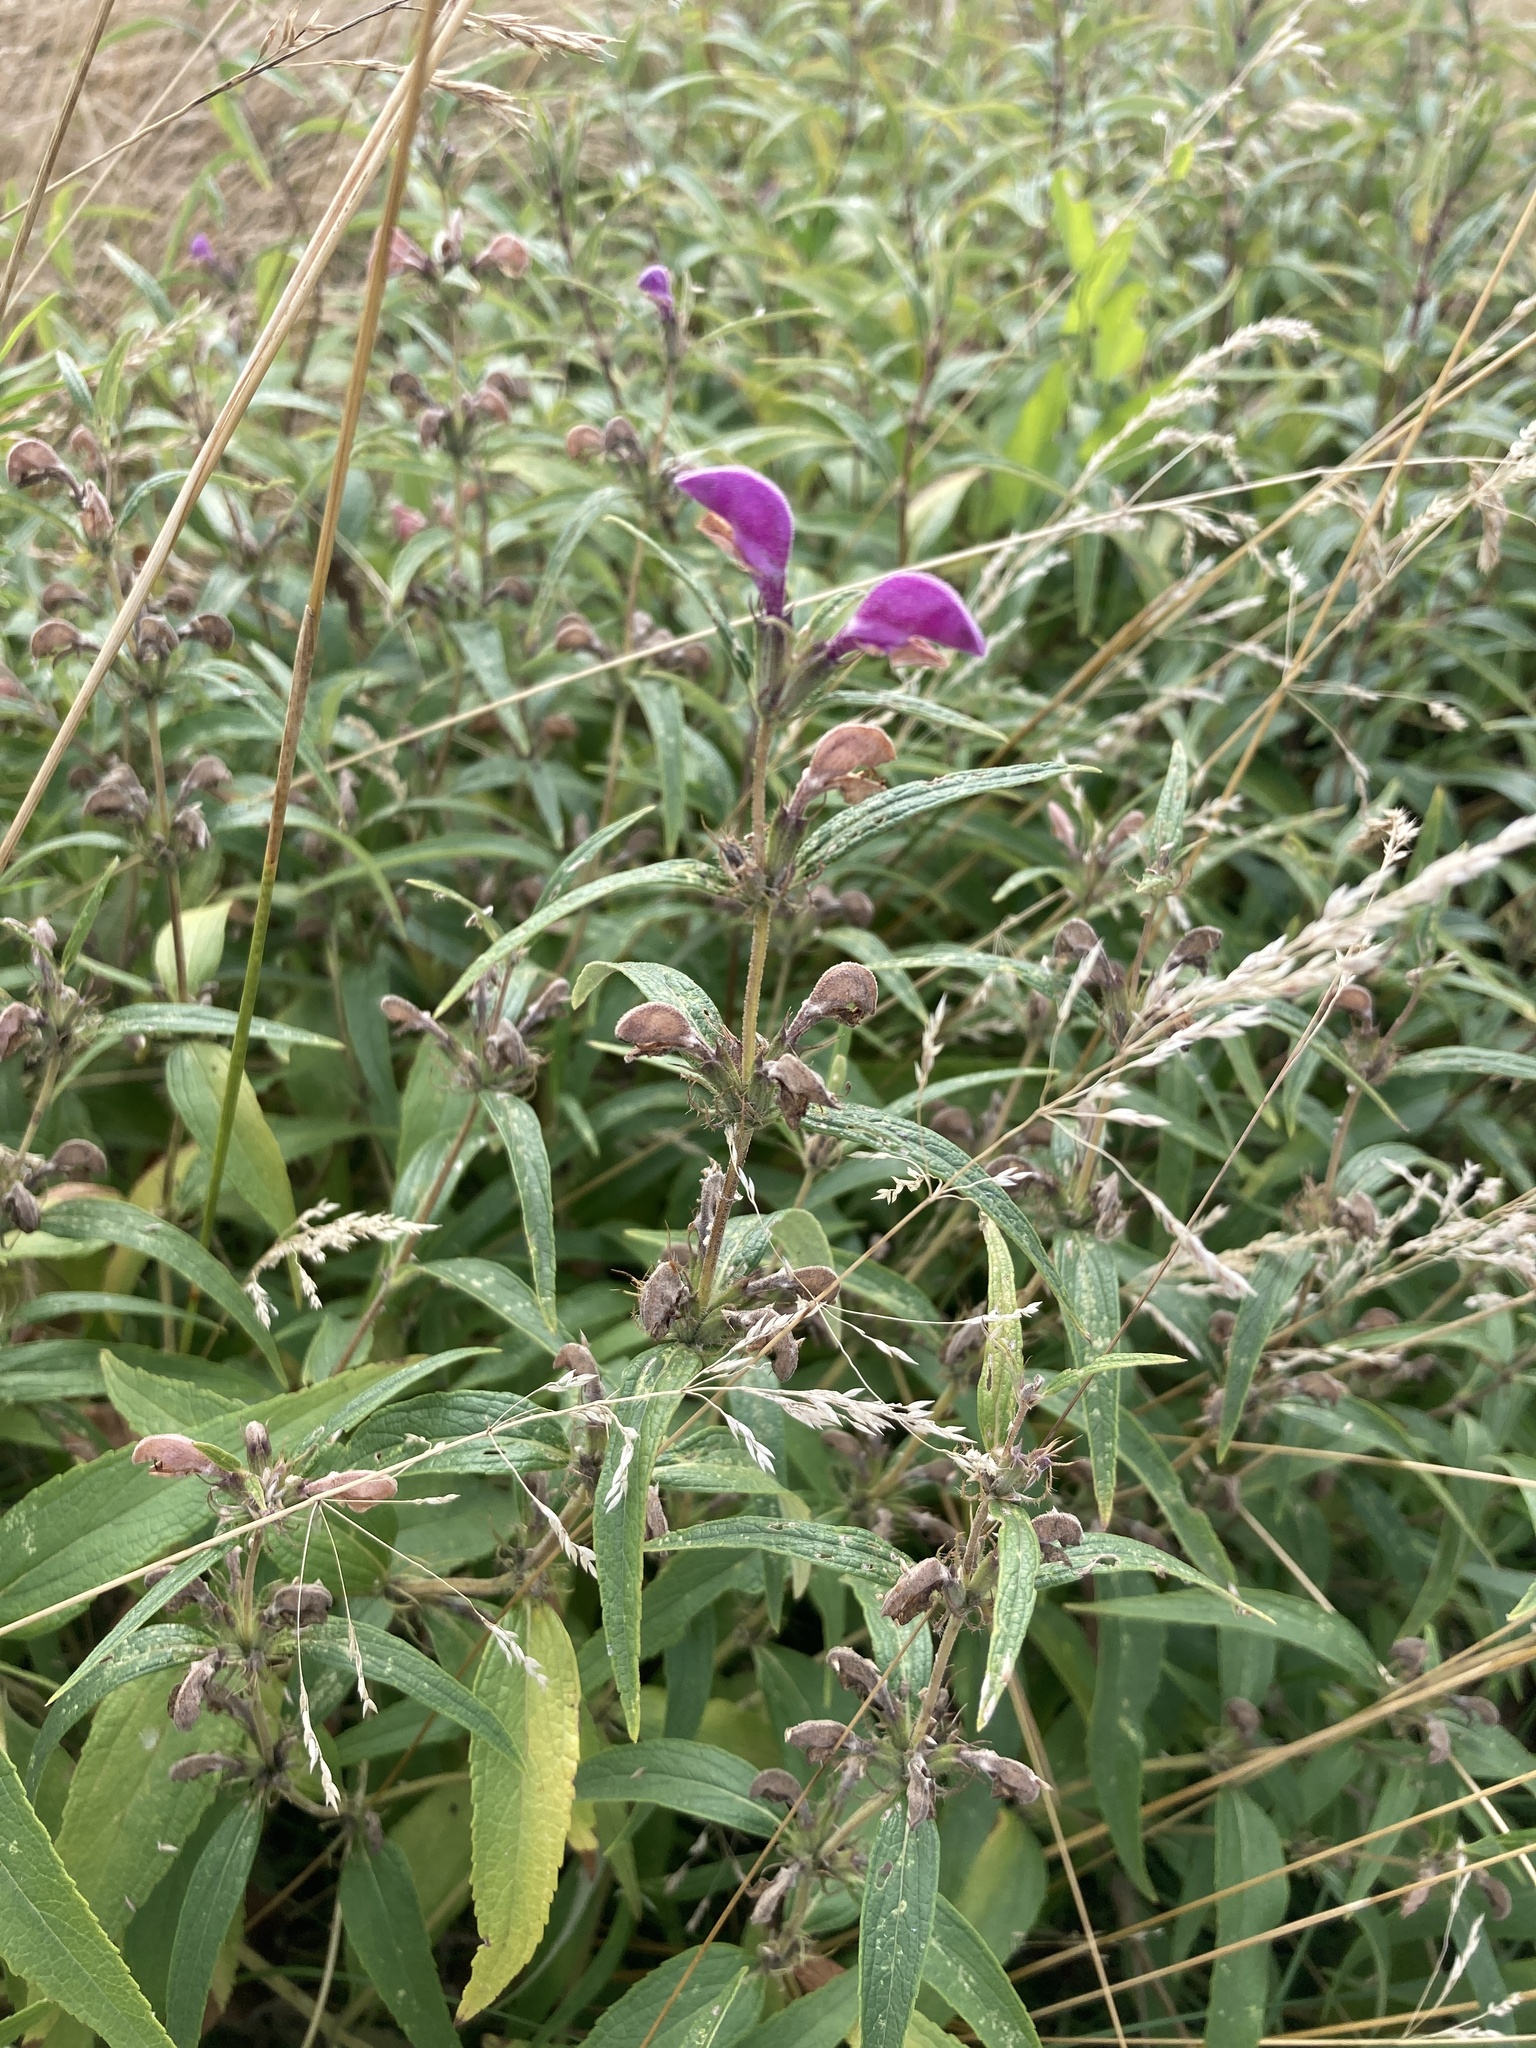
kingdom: Plantae
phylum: Tracheophyta
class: Magnoliopsida
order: Lamiales
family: Lamiaceae
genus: Phlomis
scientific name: Phlomis herba-venti
